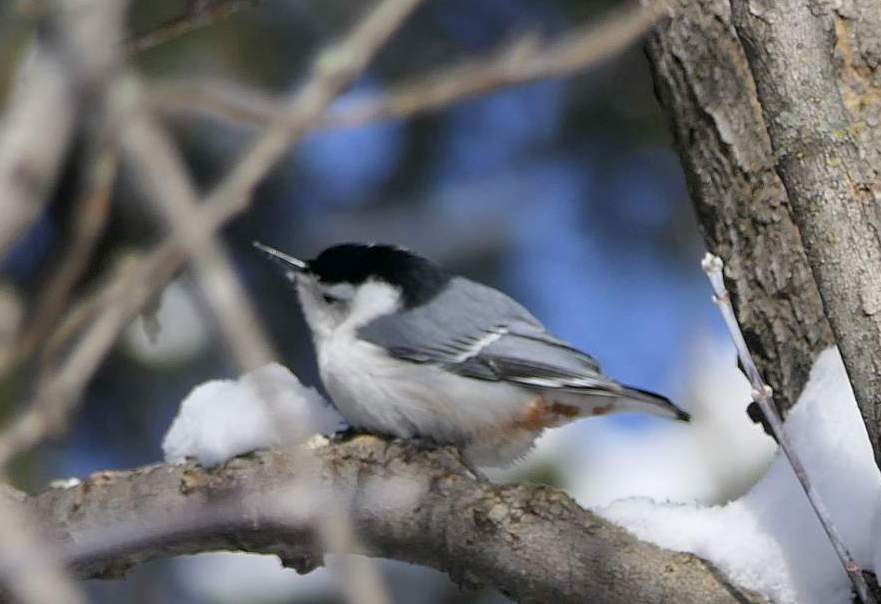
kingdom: Animalia
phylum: Chordata
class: Aves
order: Passeriformes
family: Sittidae
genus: Sitta
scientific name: Sitta carolinensis
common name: White-breasted nuthatch
